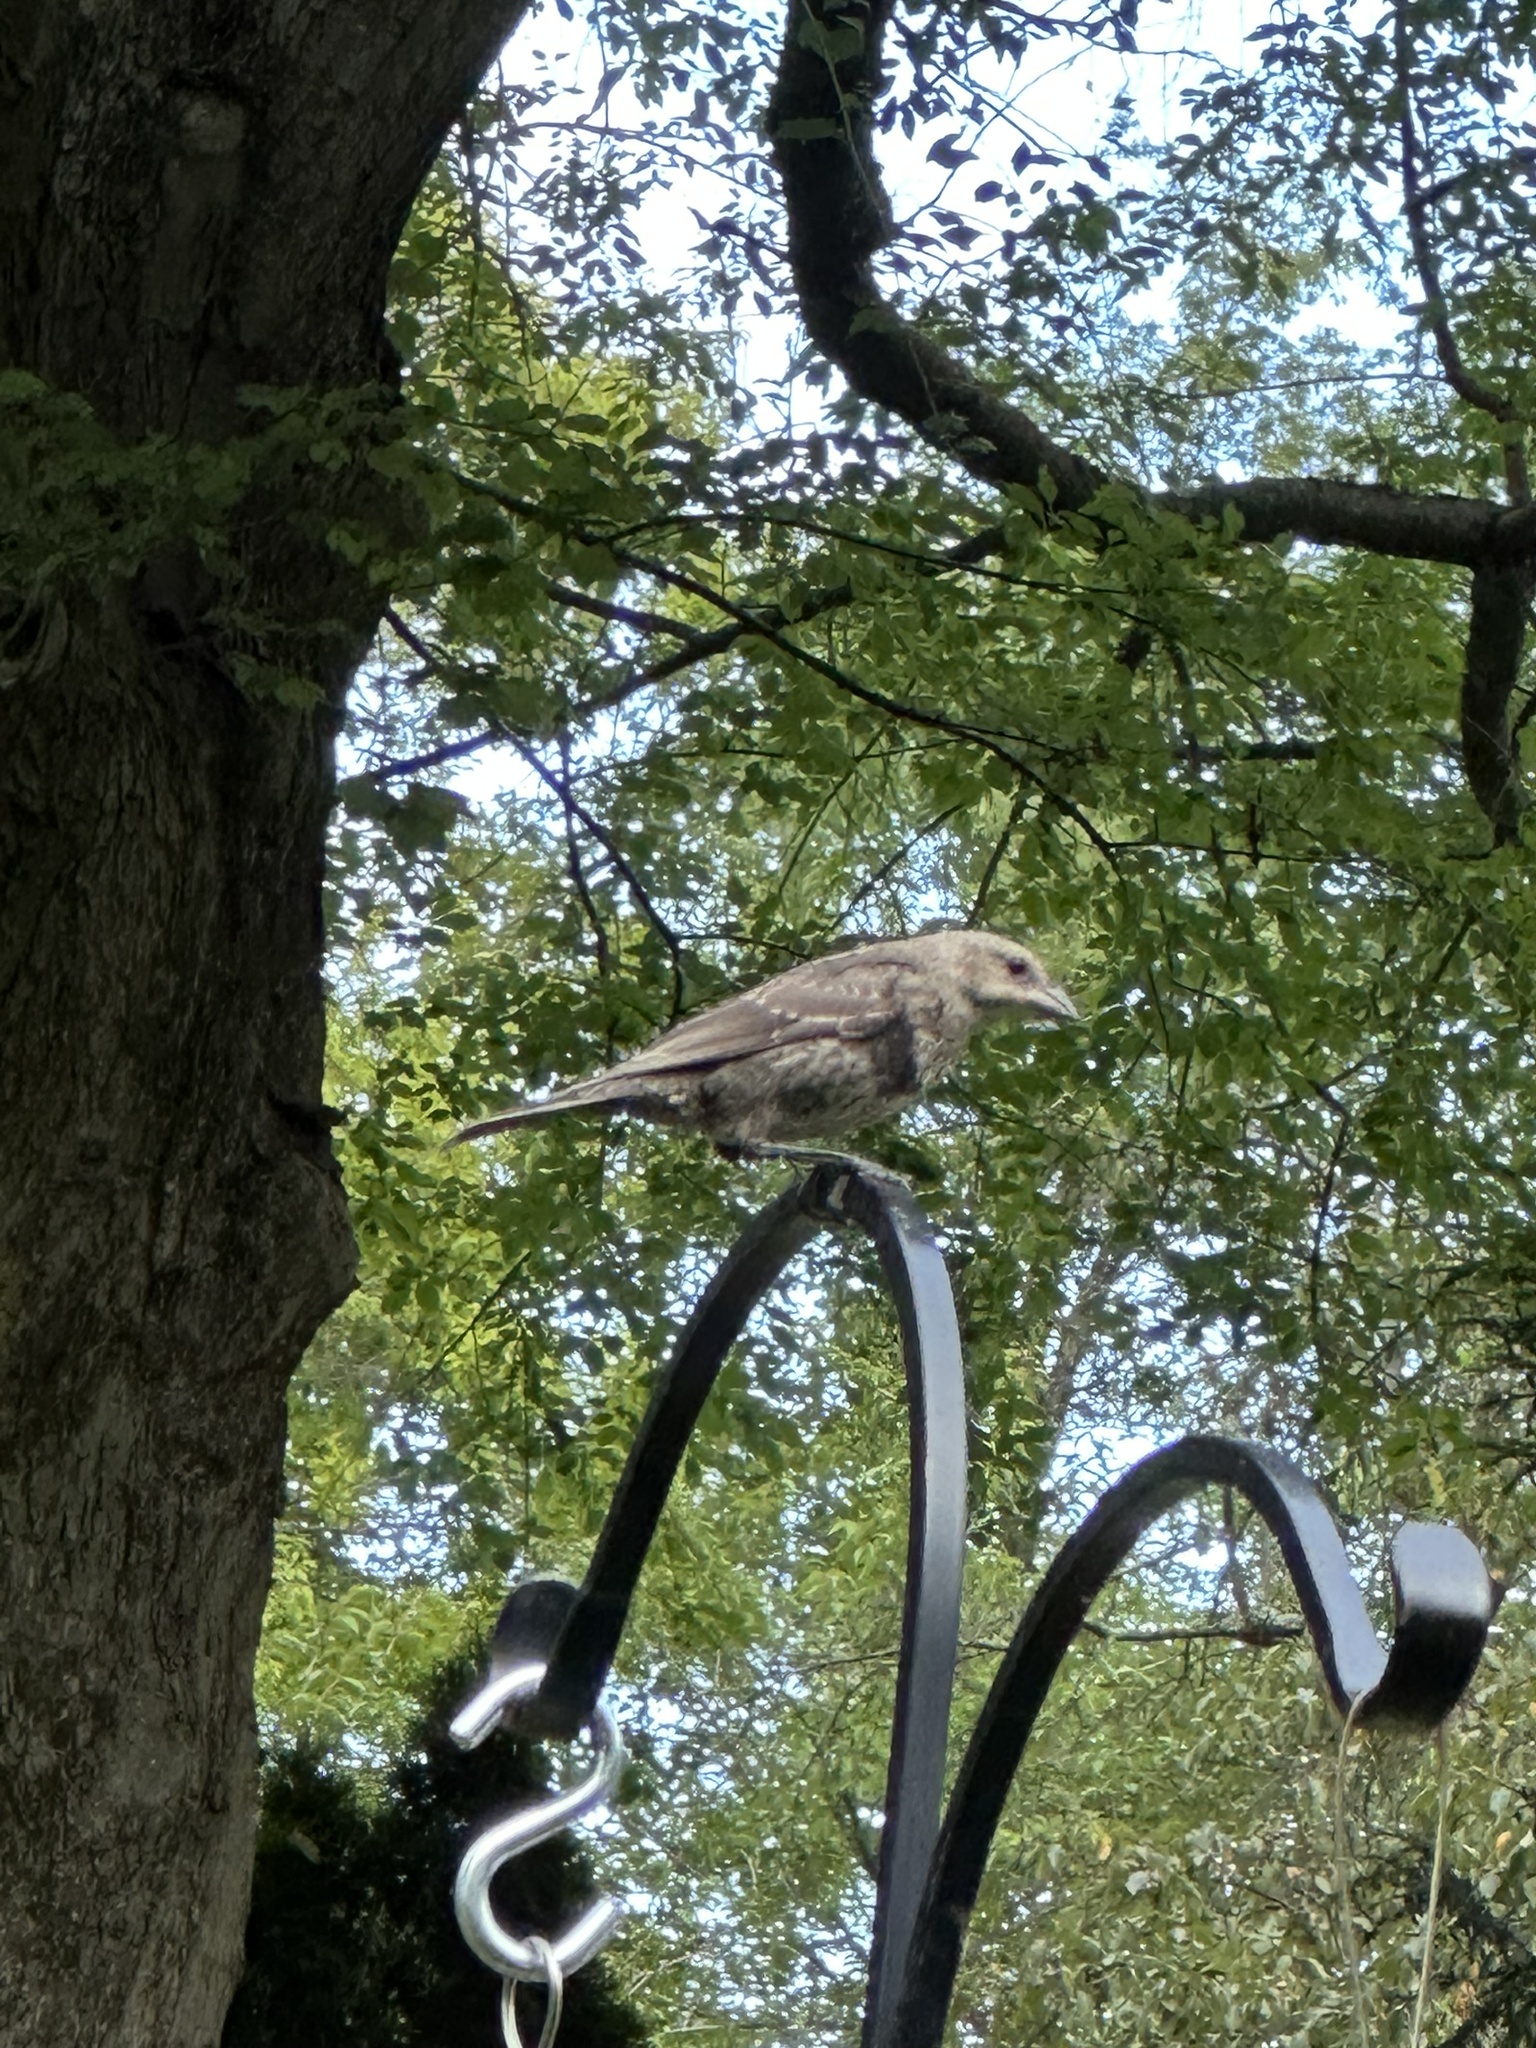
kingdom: Animalia
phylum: Chordata
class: Aves
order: Passeriformes
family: Icteridae
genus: Molothrus
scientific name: Molothrus ater
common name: Brown-headed cowbird
